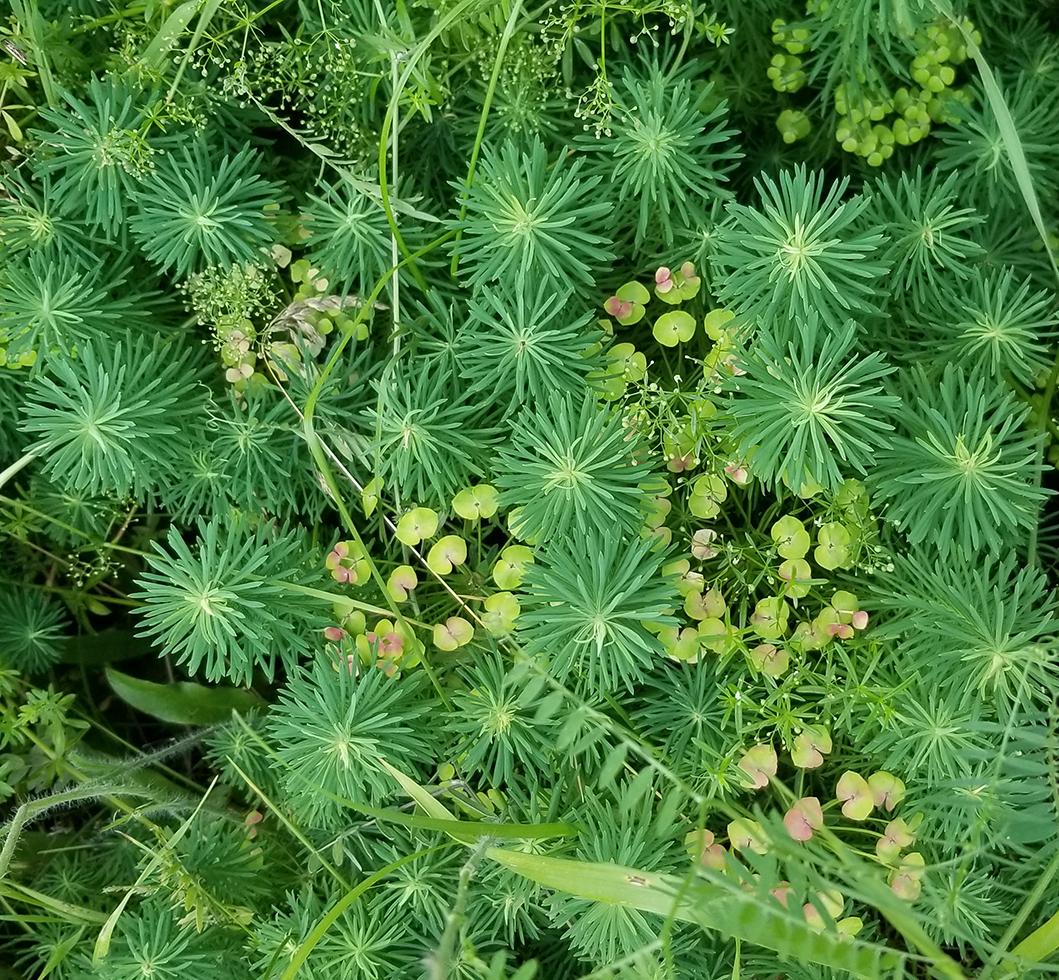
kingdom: Plantae
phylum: Tracheophyta
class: Magnoliopsida
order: Malpighiales
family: Euphorbiaceae
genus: Euphorbia
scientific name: Euphorbia cyparissias
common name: Cypress spurge
